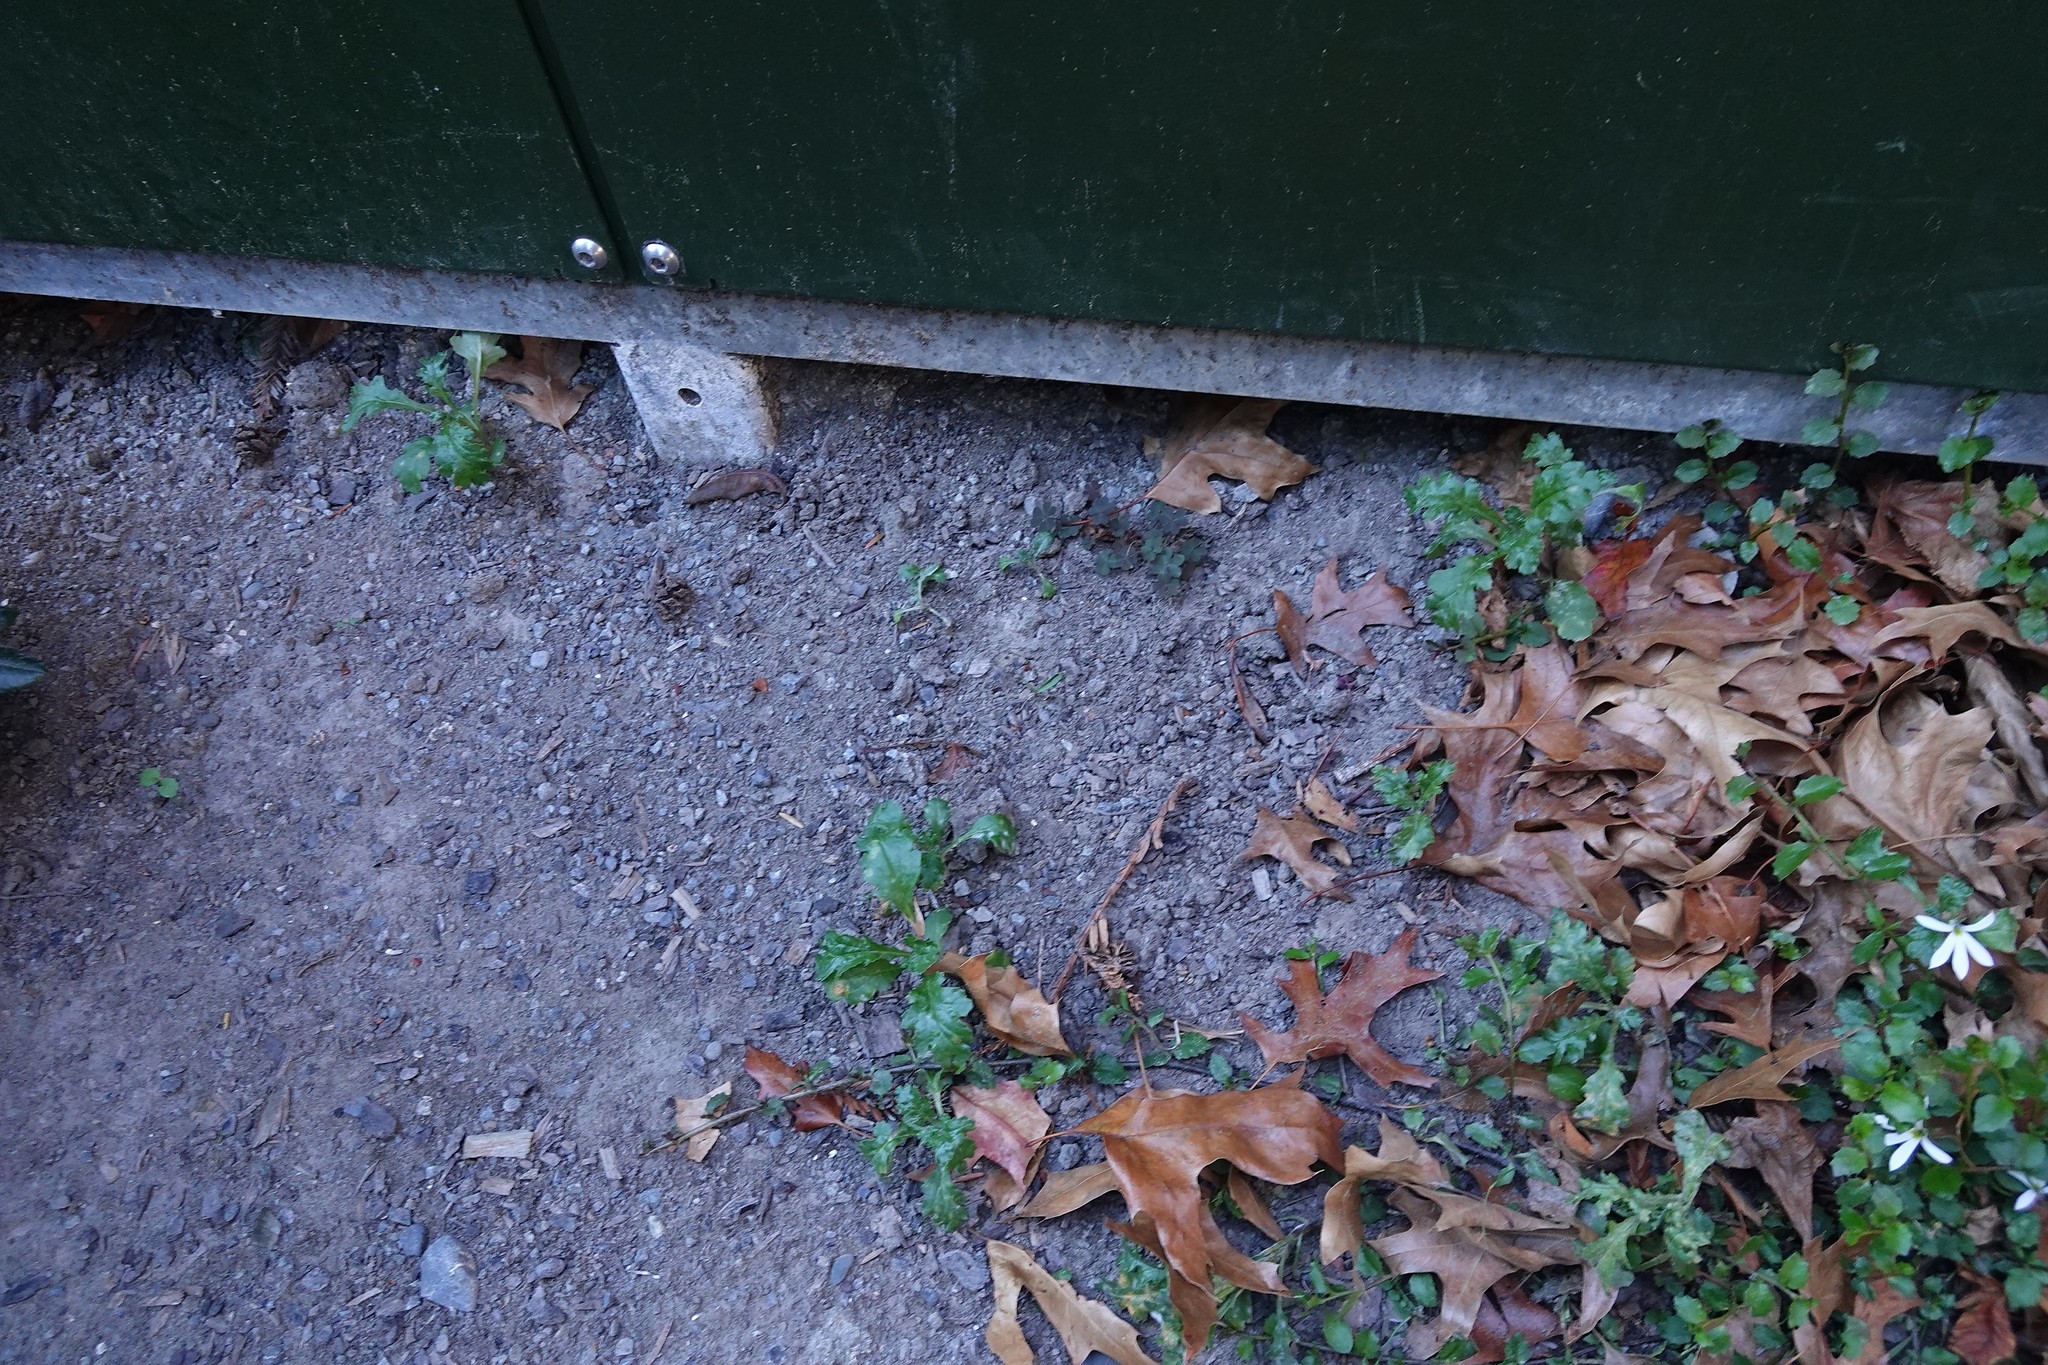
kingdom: Plantae
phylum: Tracheophyta
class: Magnoliopsida
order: Asterales
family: Asteraceae
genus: Senecio
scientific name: Senecio vulgaris
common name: Old-man-in-the-spring
